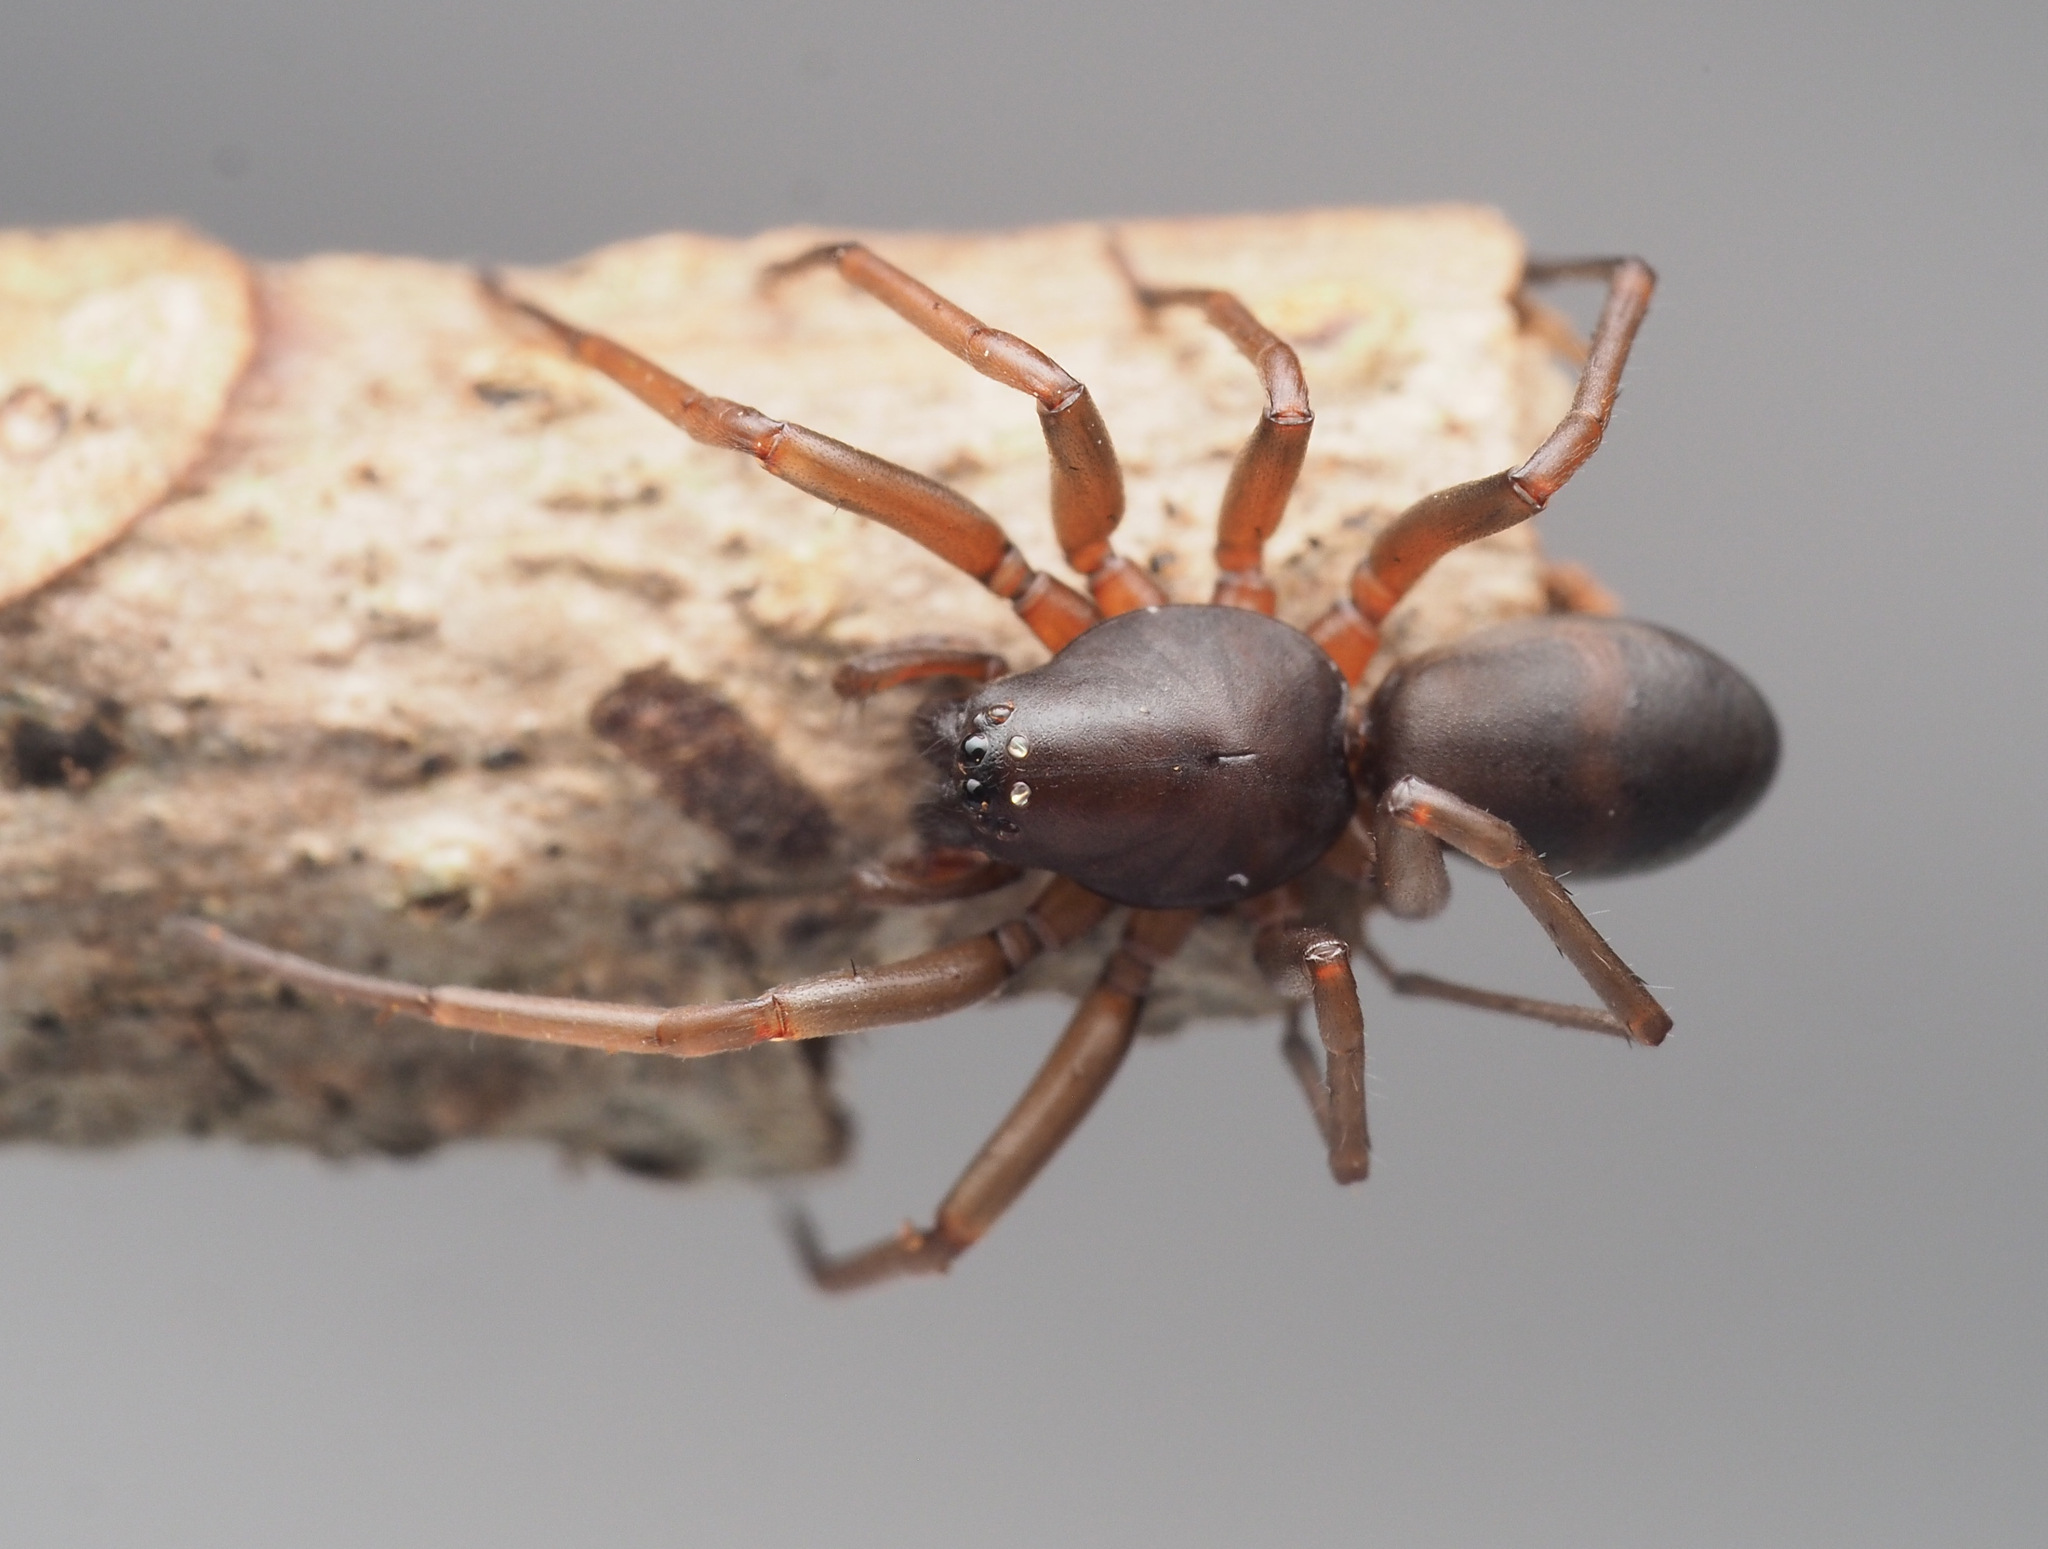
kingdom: Animalia
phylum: Arthropoda
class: Arachnida
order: Araneae
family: Lamponidae
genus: Centsymplia
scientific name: Centsymplia glorious
